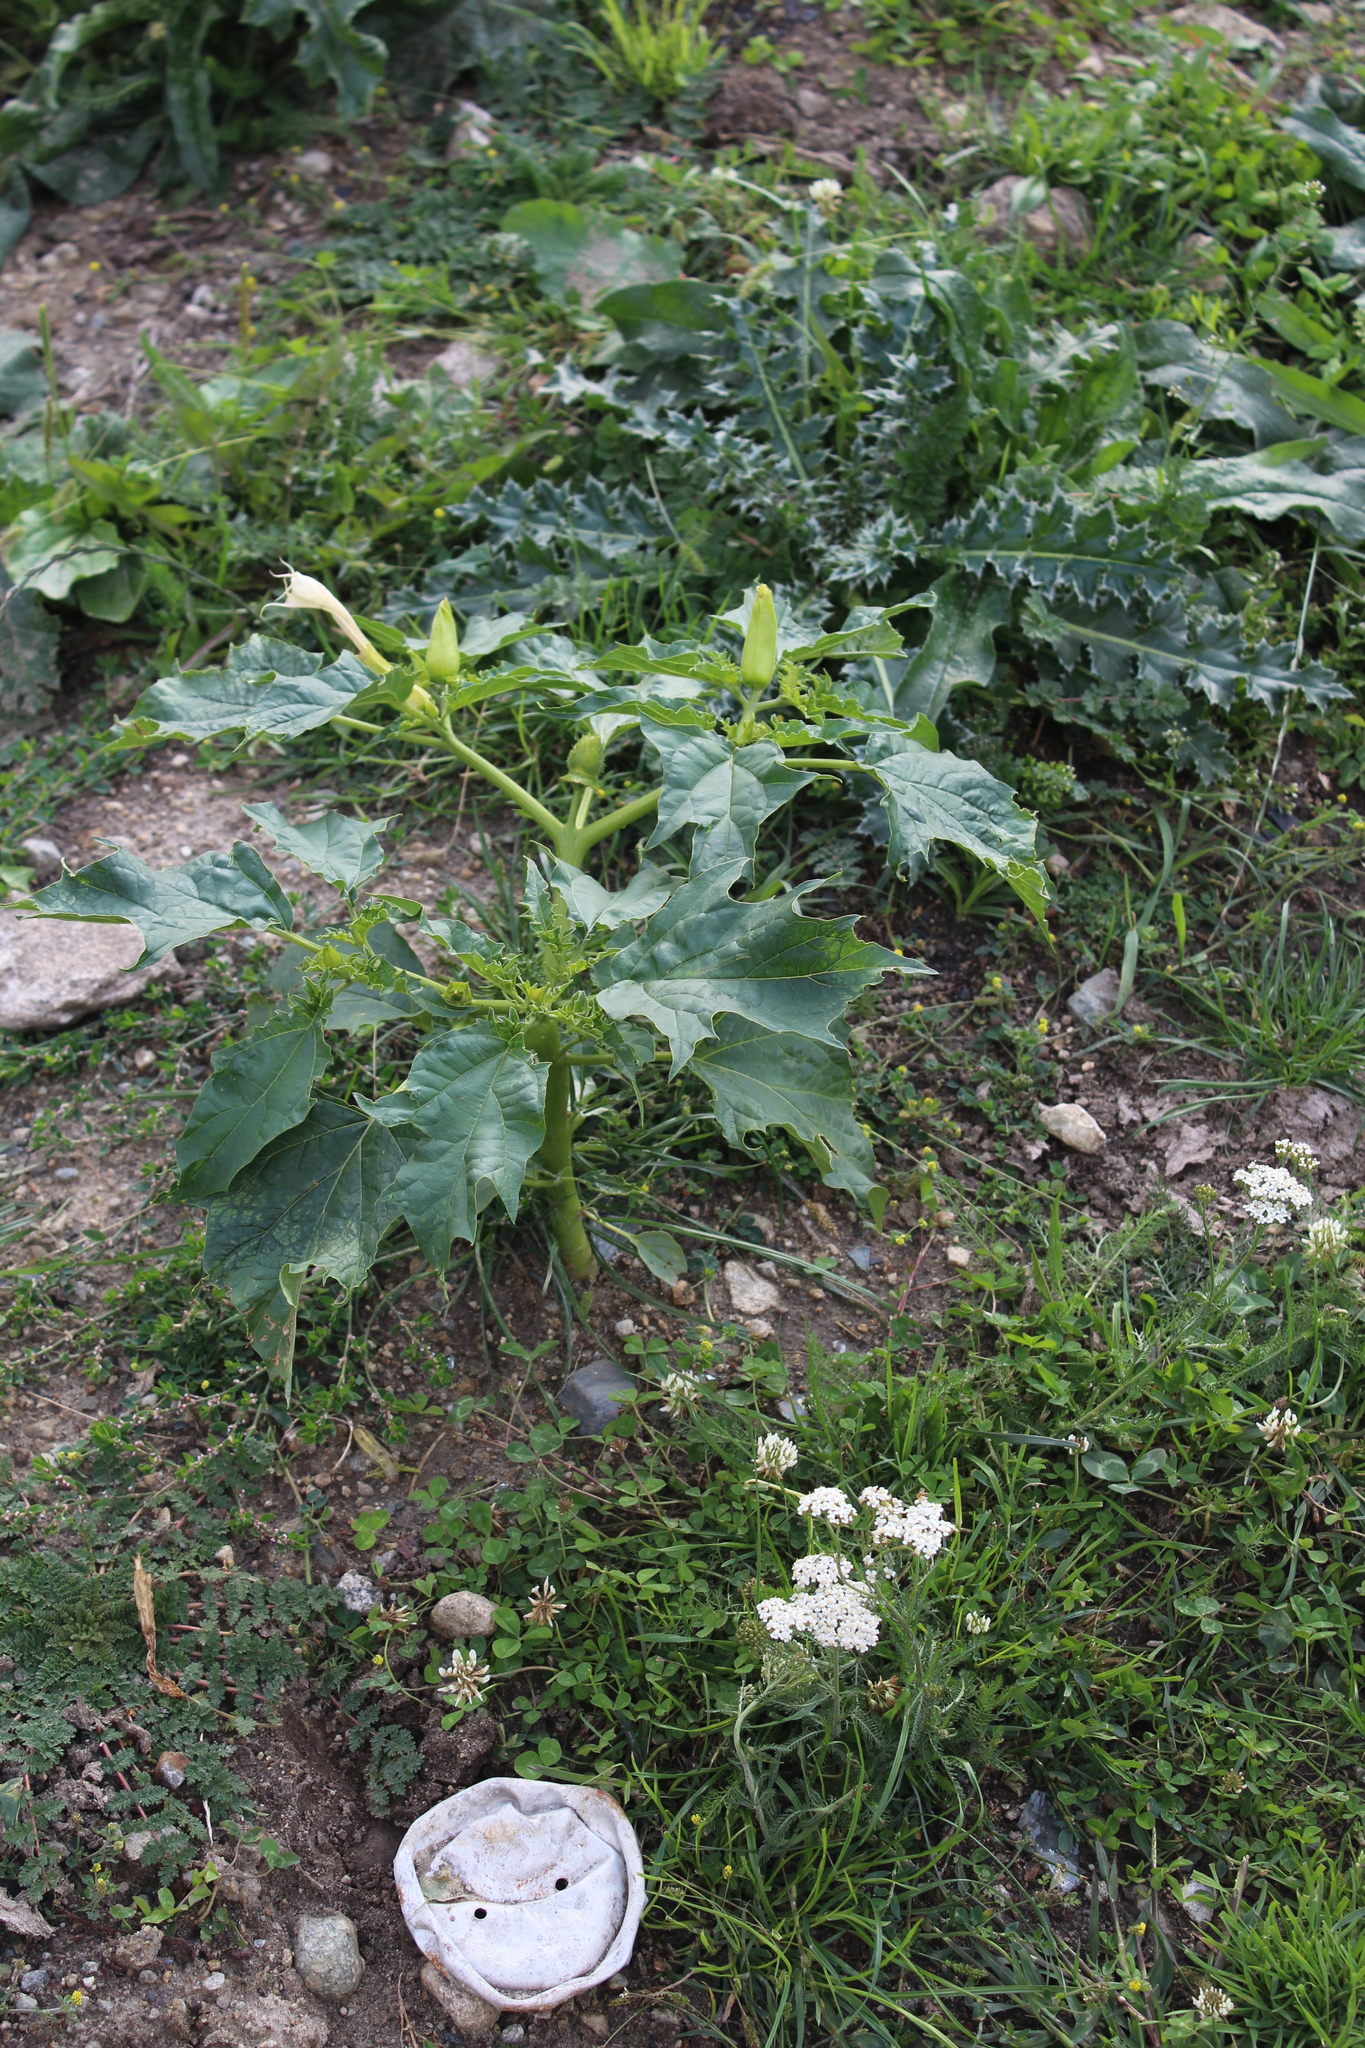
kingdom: Plantae
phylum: Tracheophyta
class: Magnoliopsida
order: Solanales
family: Solanaceae
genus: Datura
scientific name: Datura stramonium
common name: Thorn-apple
